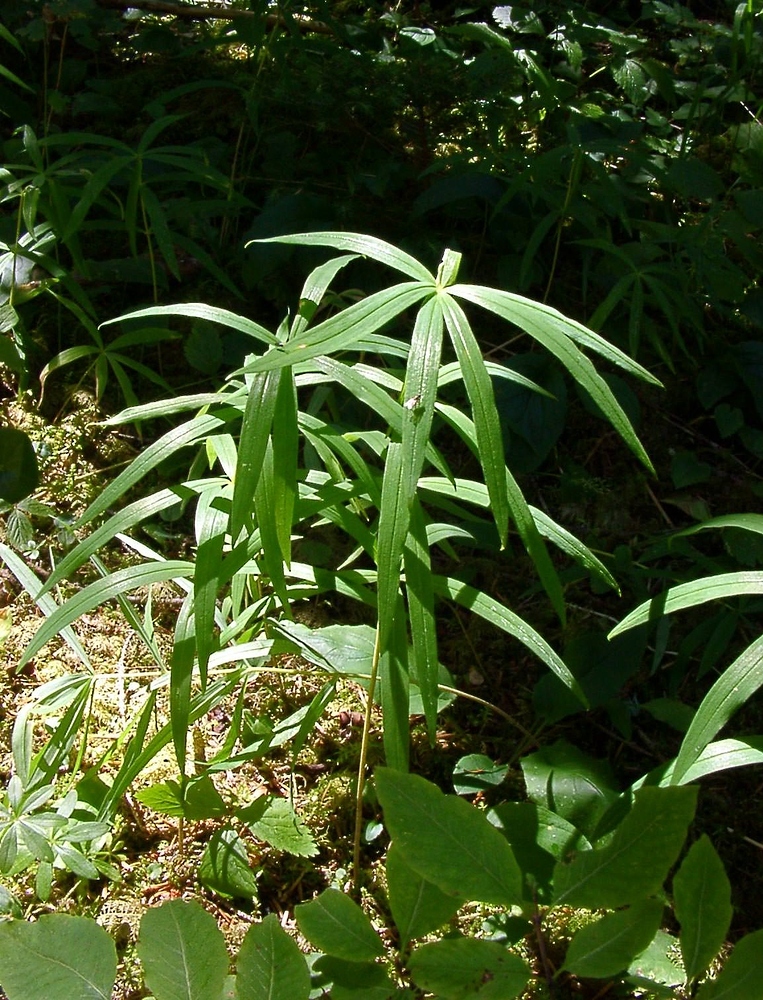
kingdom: Plantae
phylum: Tracheophyta
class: Liliopsida
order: Asparagales
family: Asparagaceae
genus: Polygonatum
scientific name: Polygonatum verticillatum
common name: Whorled solomon's-seal
